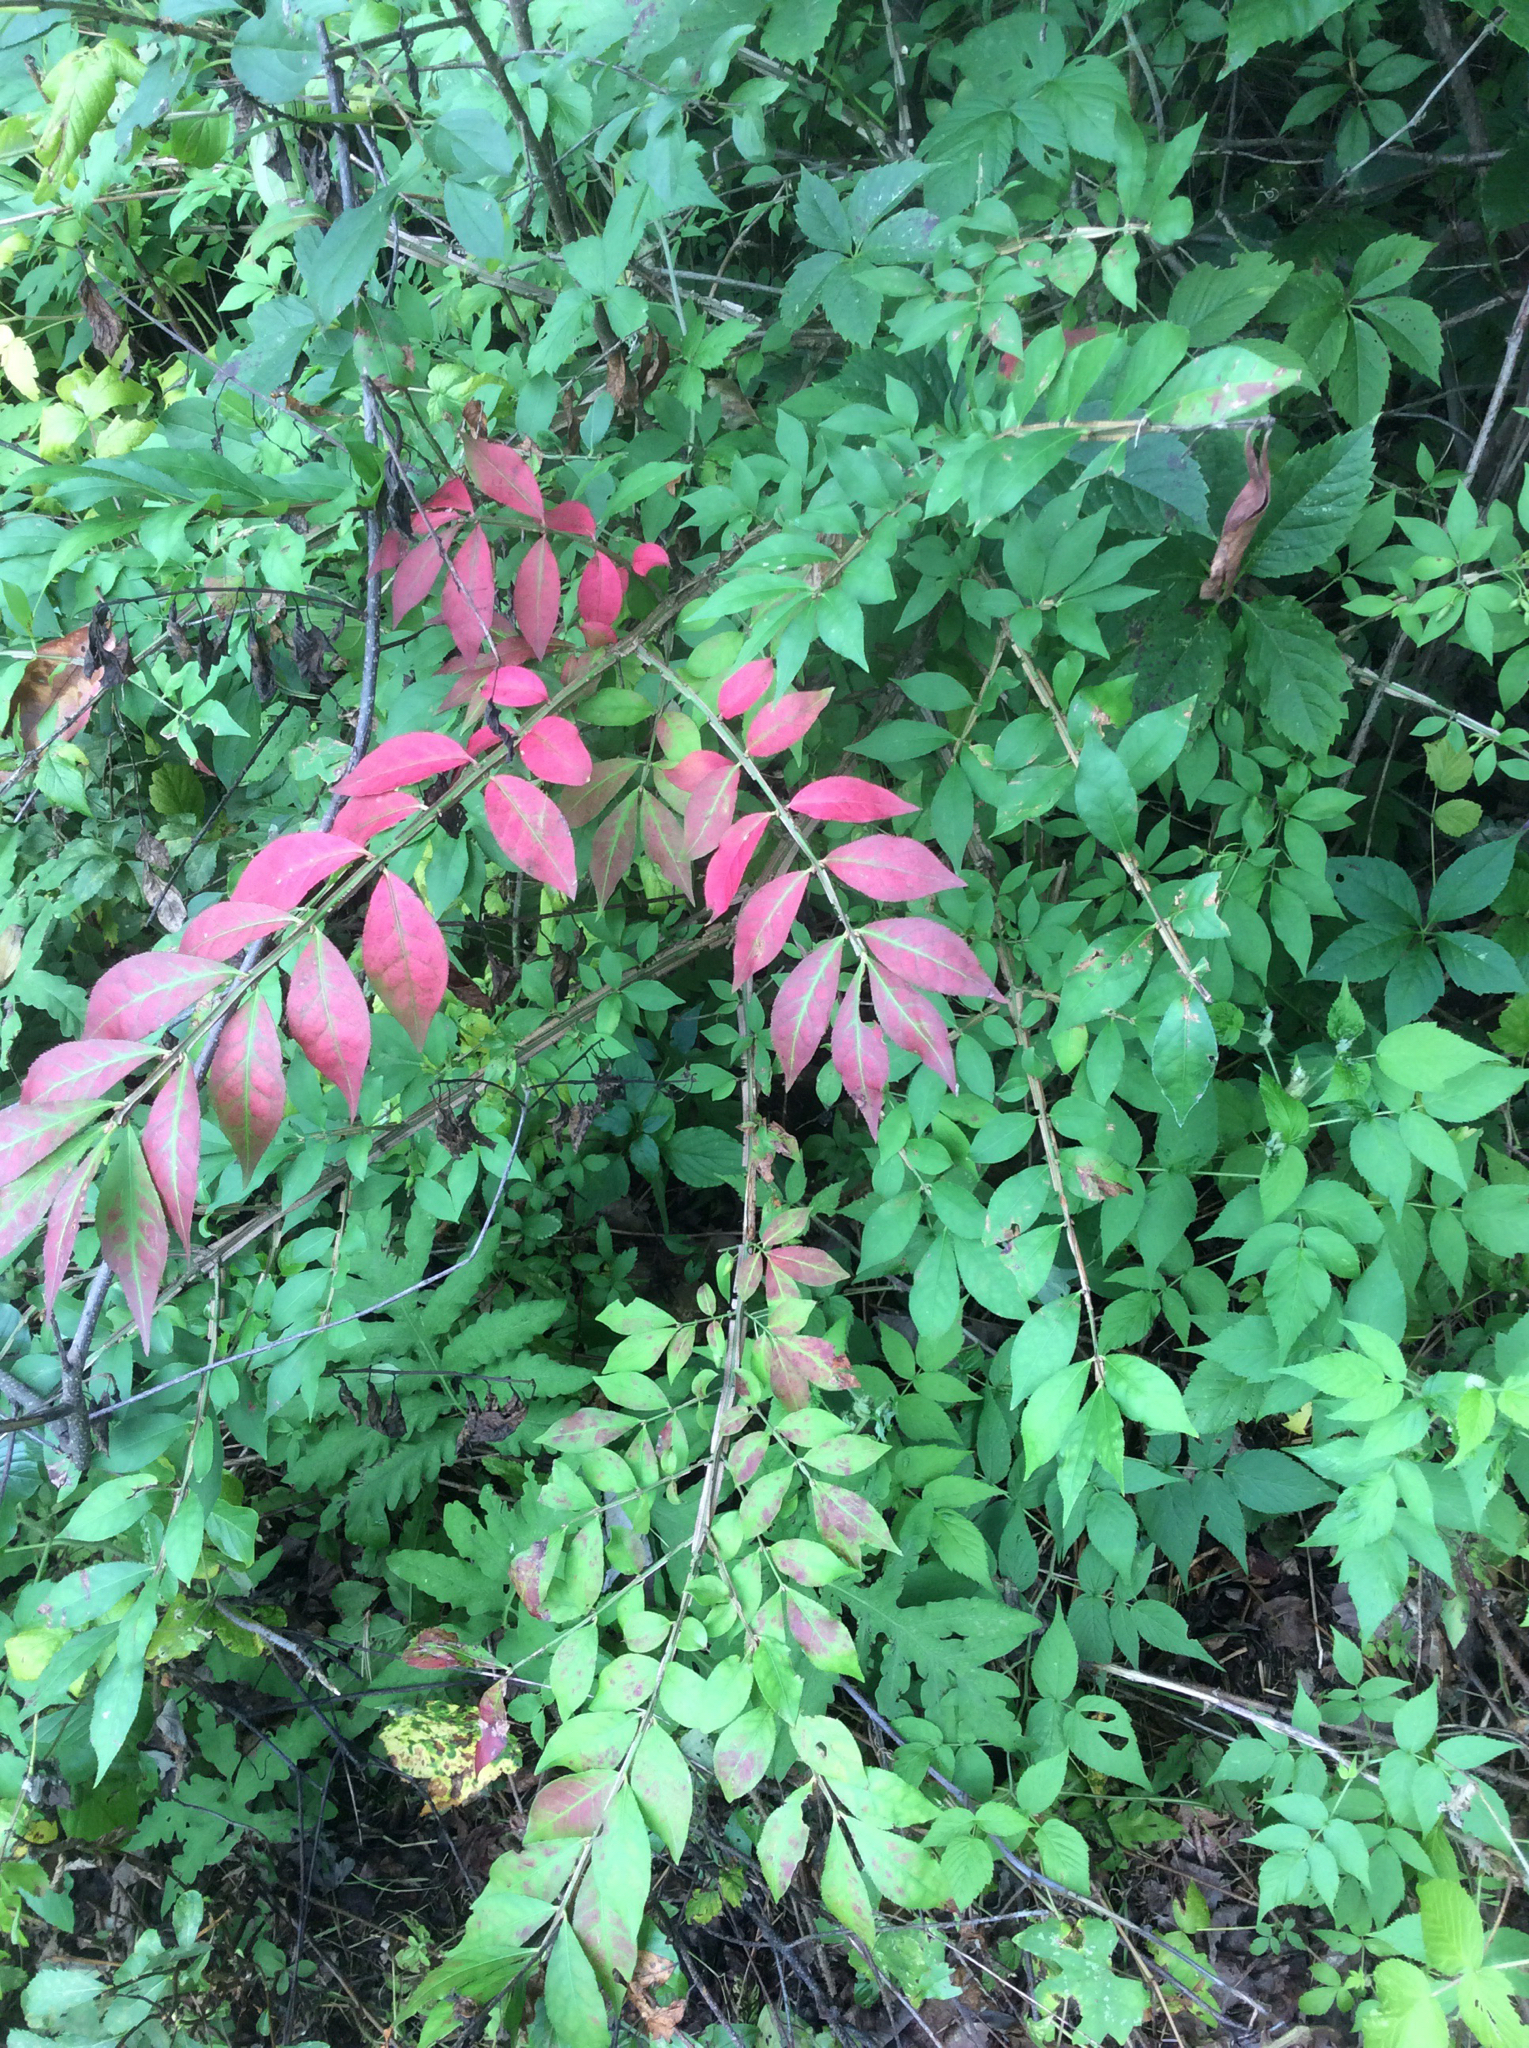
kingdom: Plantae
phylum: Tracheophyta
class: Magnoliopsida
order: Celastrales
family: Celastraceae
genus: Euonymus
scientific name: Euonymus alatus
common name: Winged euonymus
